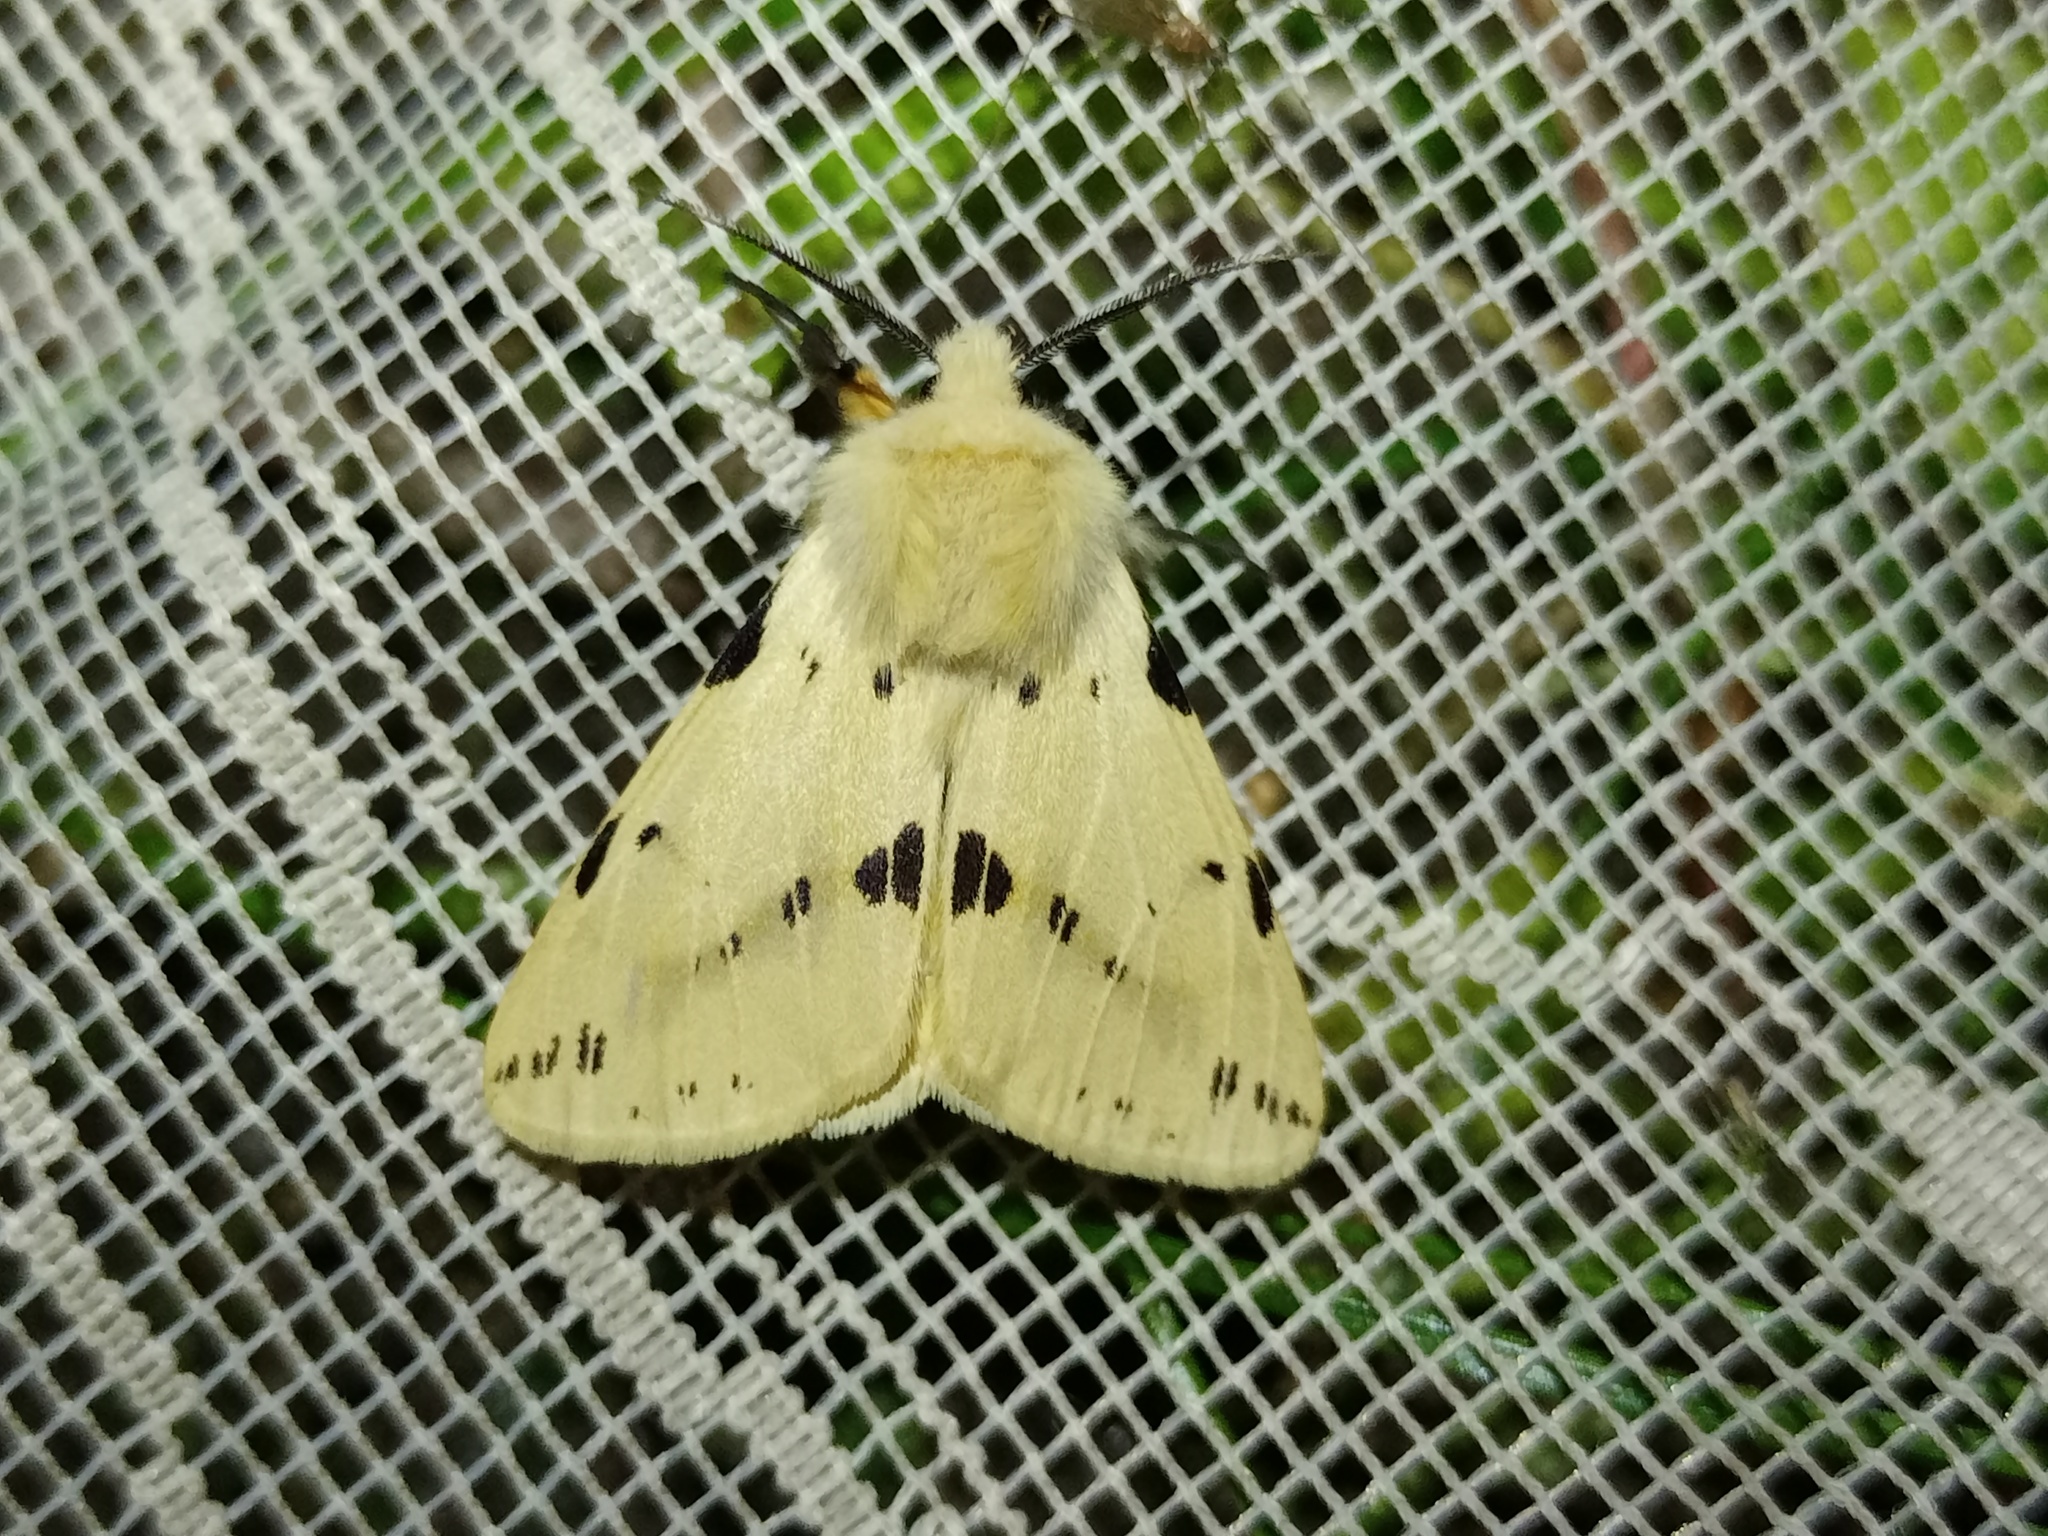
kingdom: Animalia
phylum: Arthropoda
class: Insecta
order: Lepidoptera
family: Erebidae
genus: Spilarctia
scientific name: Spilarctia lutea
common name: Buff ermine
